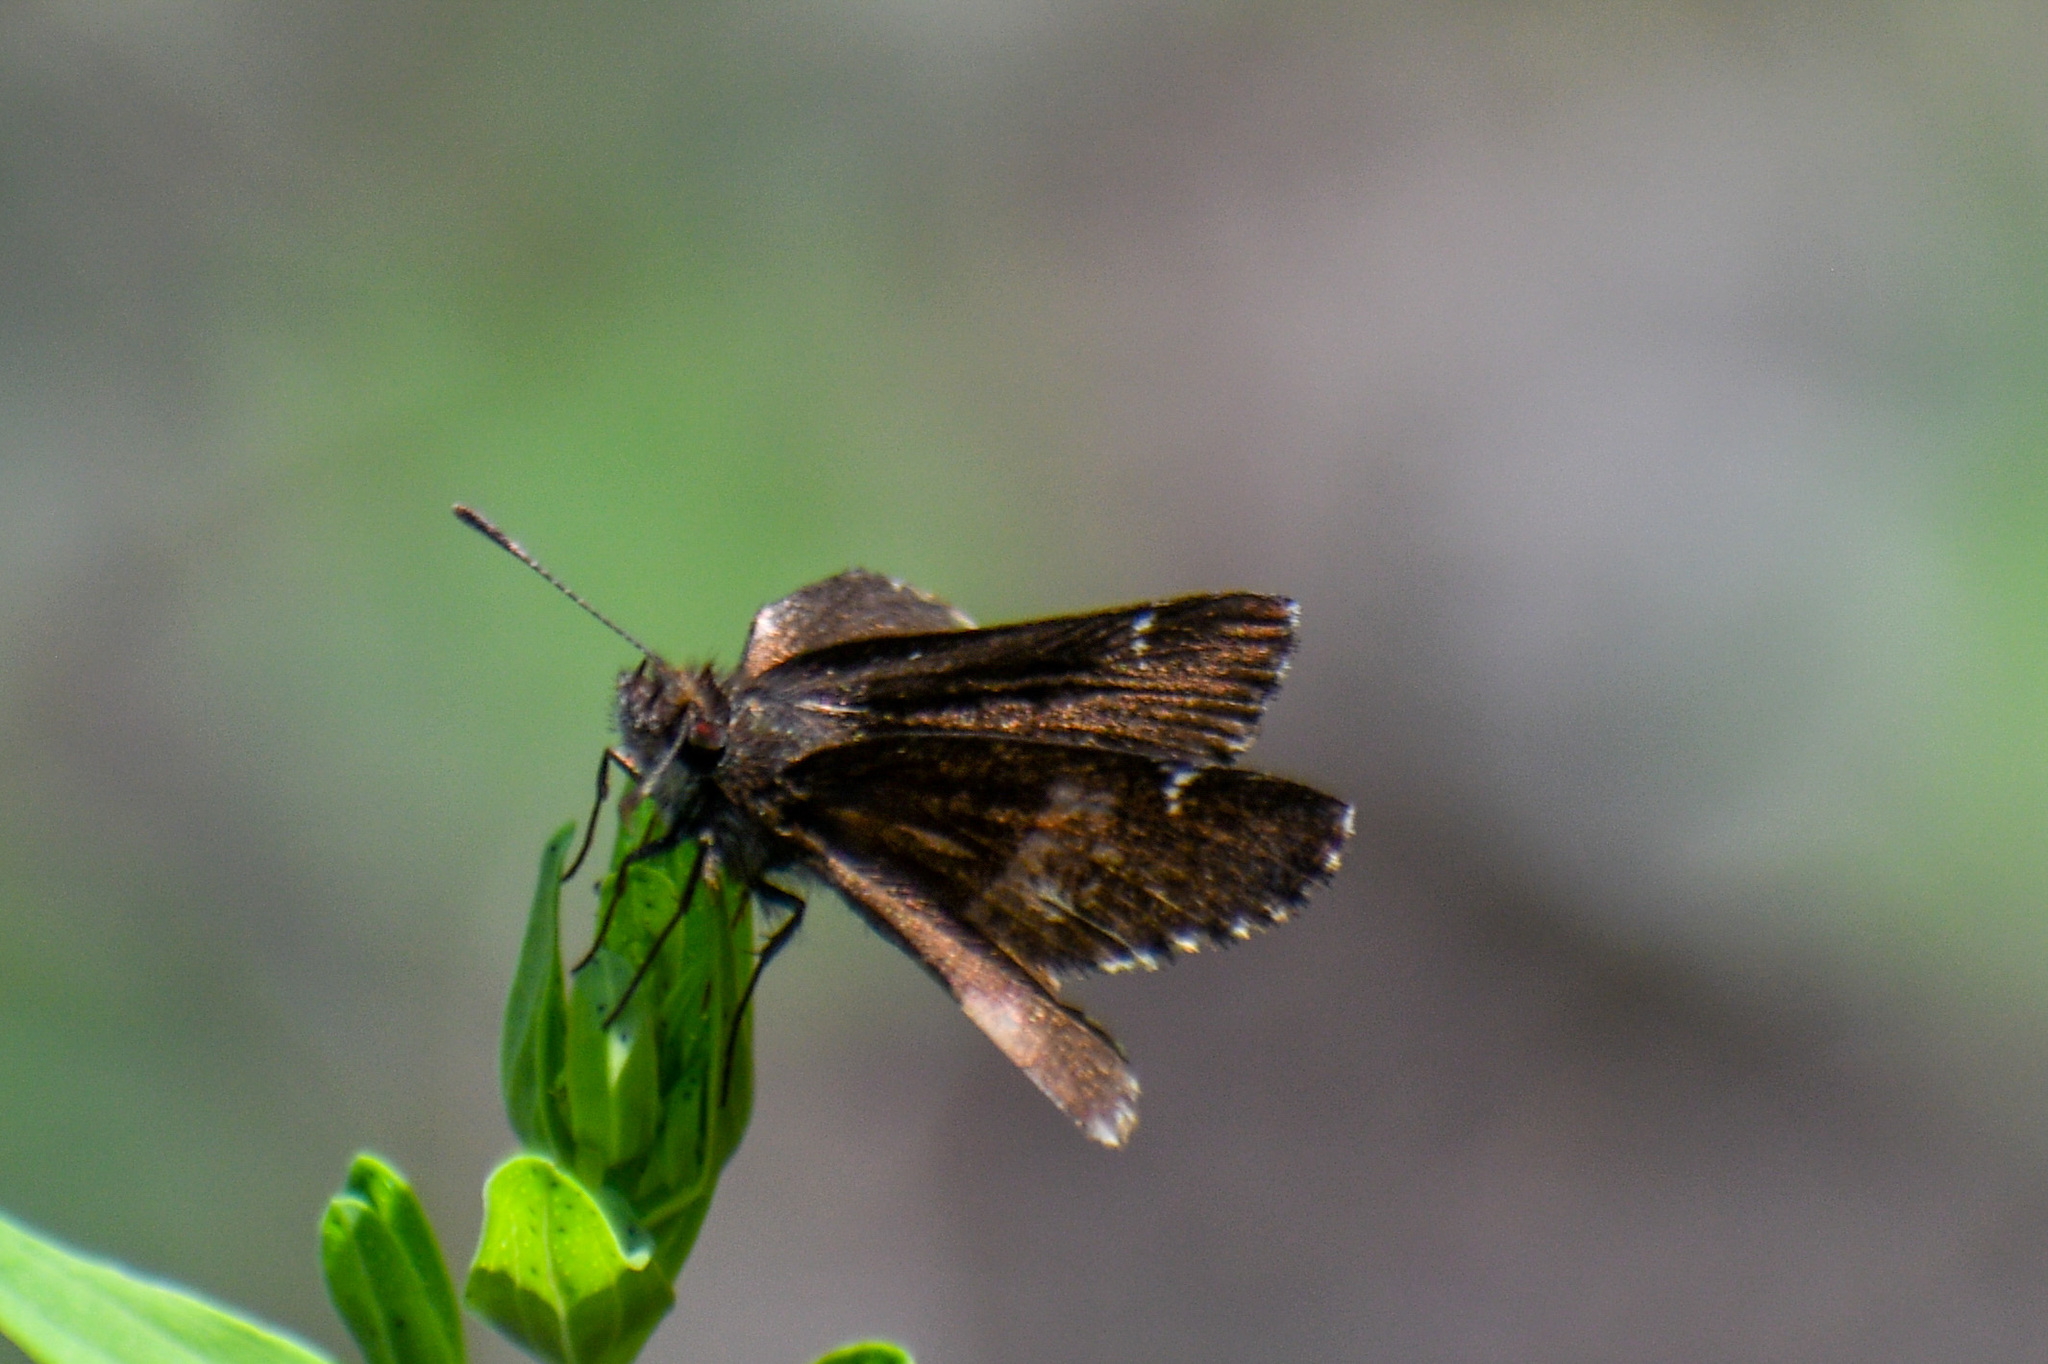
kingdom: Animalia
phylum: Arthropoda
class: Insecta
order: Lepidoptera
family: Hesperiidae
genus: Mastor
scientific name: Mastor vialis
